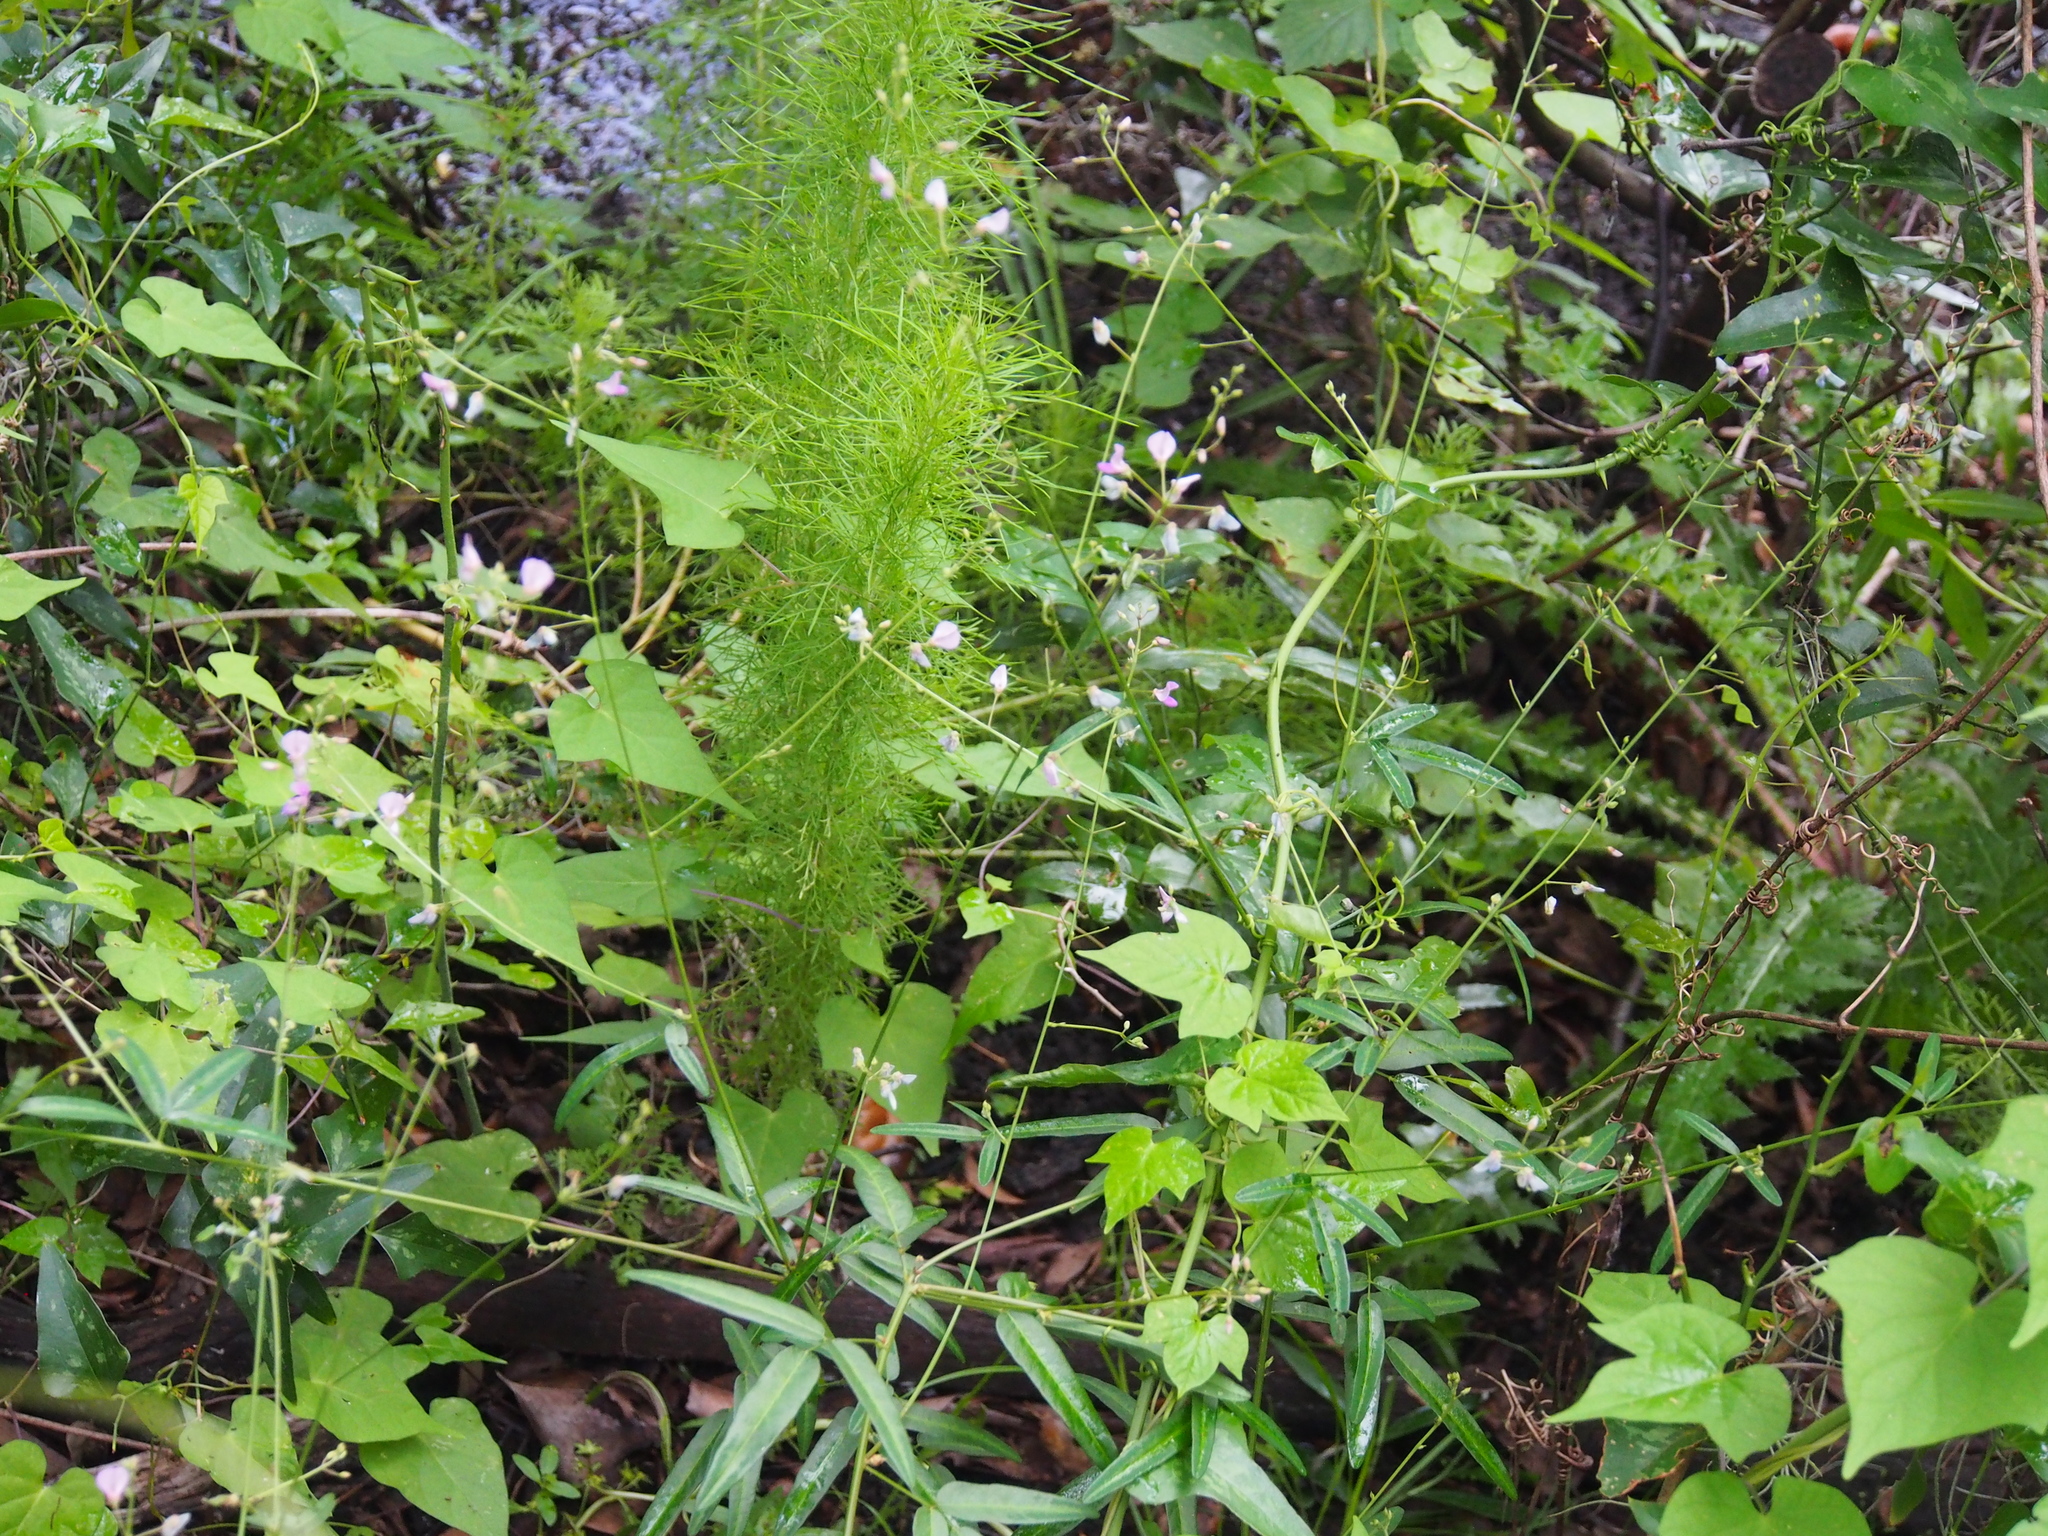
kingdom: Plantae
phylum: Tracheophyta
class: Magnoliopsida
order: Asterales
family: Asteraceae
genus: Eupatorium
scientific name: Eupatorium capillifolium
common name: Dog-fennel
